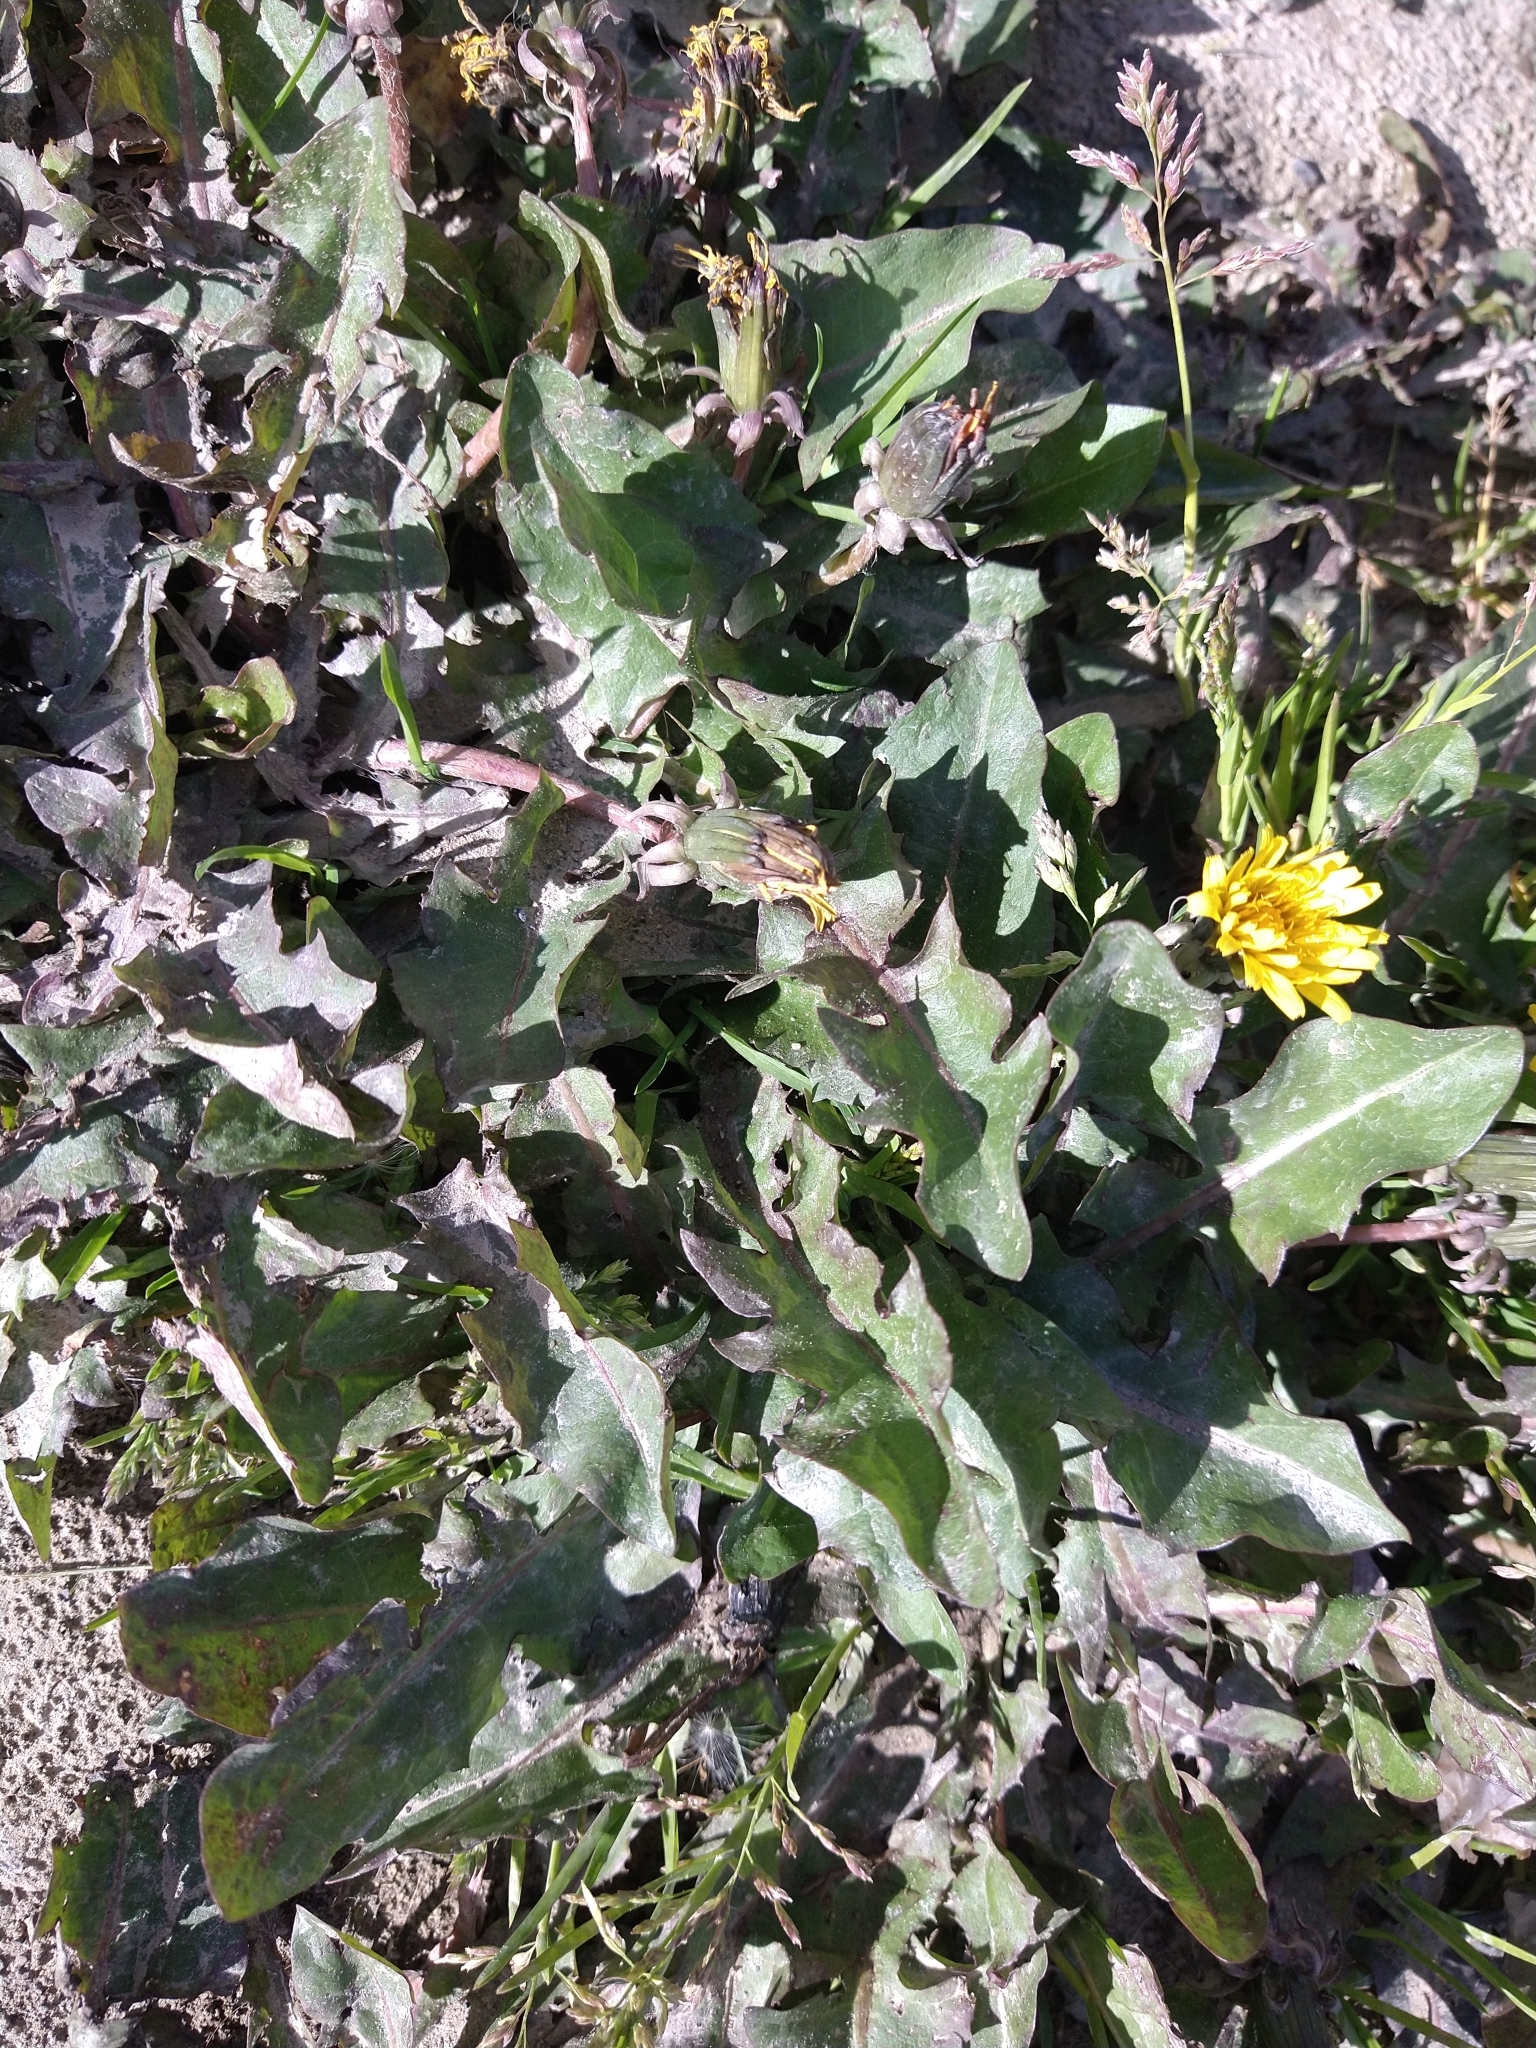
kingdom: Plantae
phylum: Tracheophyta
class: Magnoliopsida
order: Asterales
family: Asteraceae
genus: Taraxacum
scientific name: Taraxacum officinale
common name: Common dandelion
